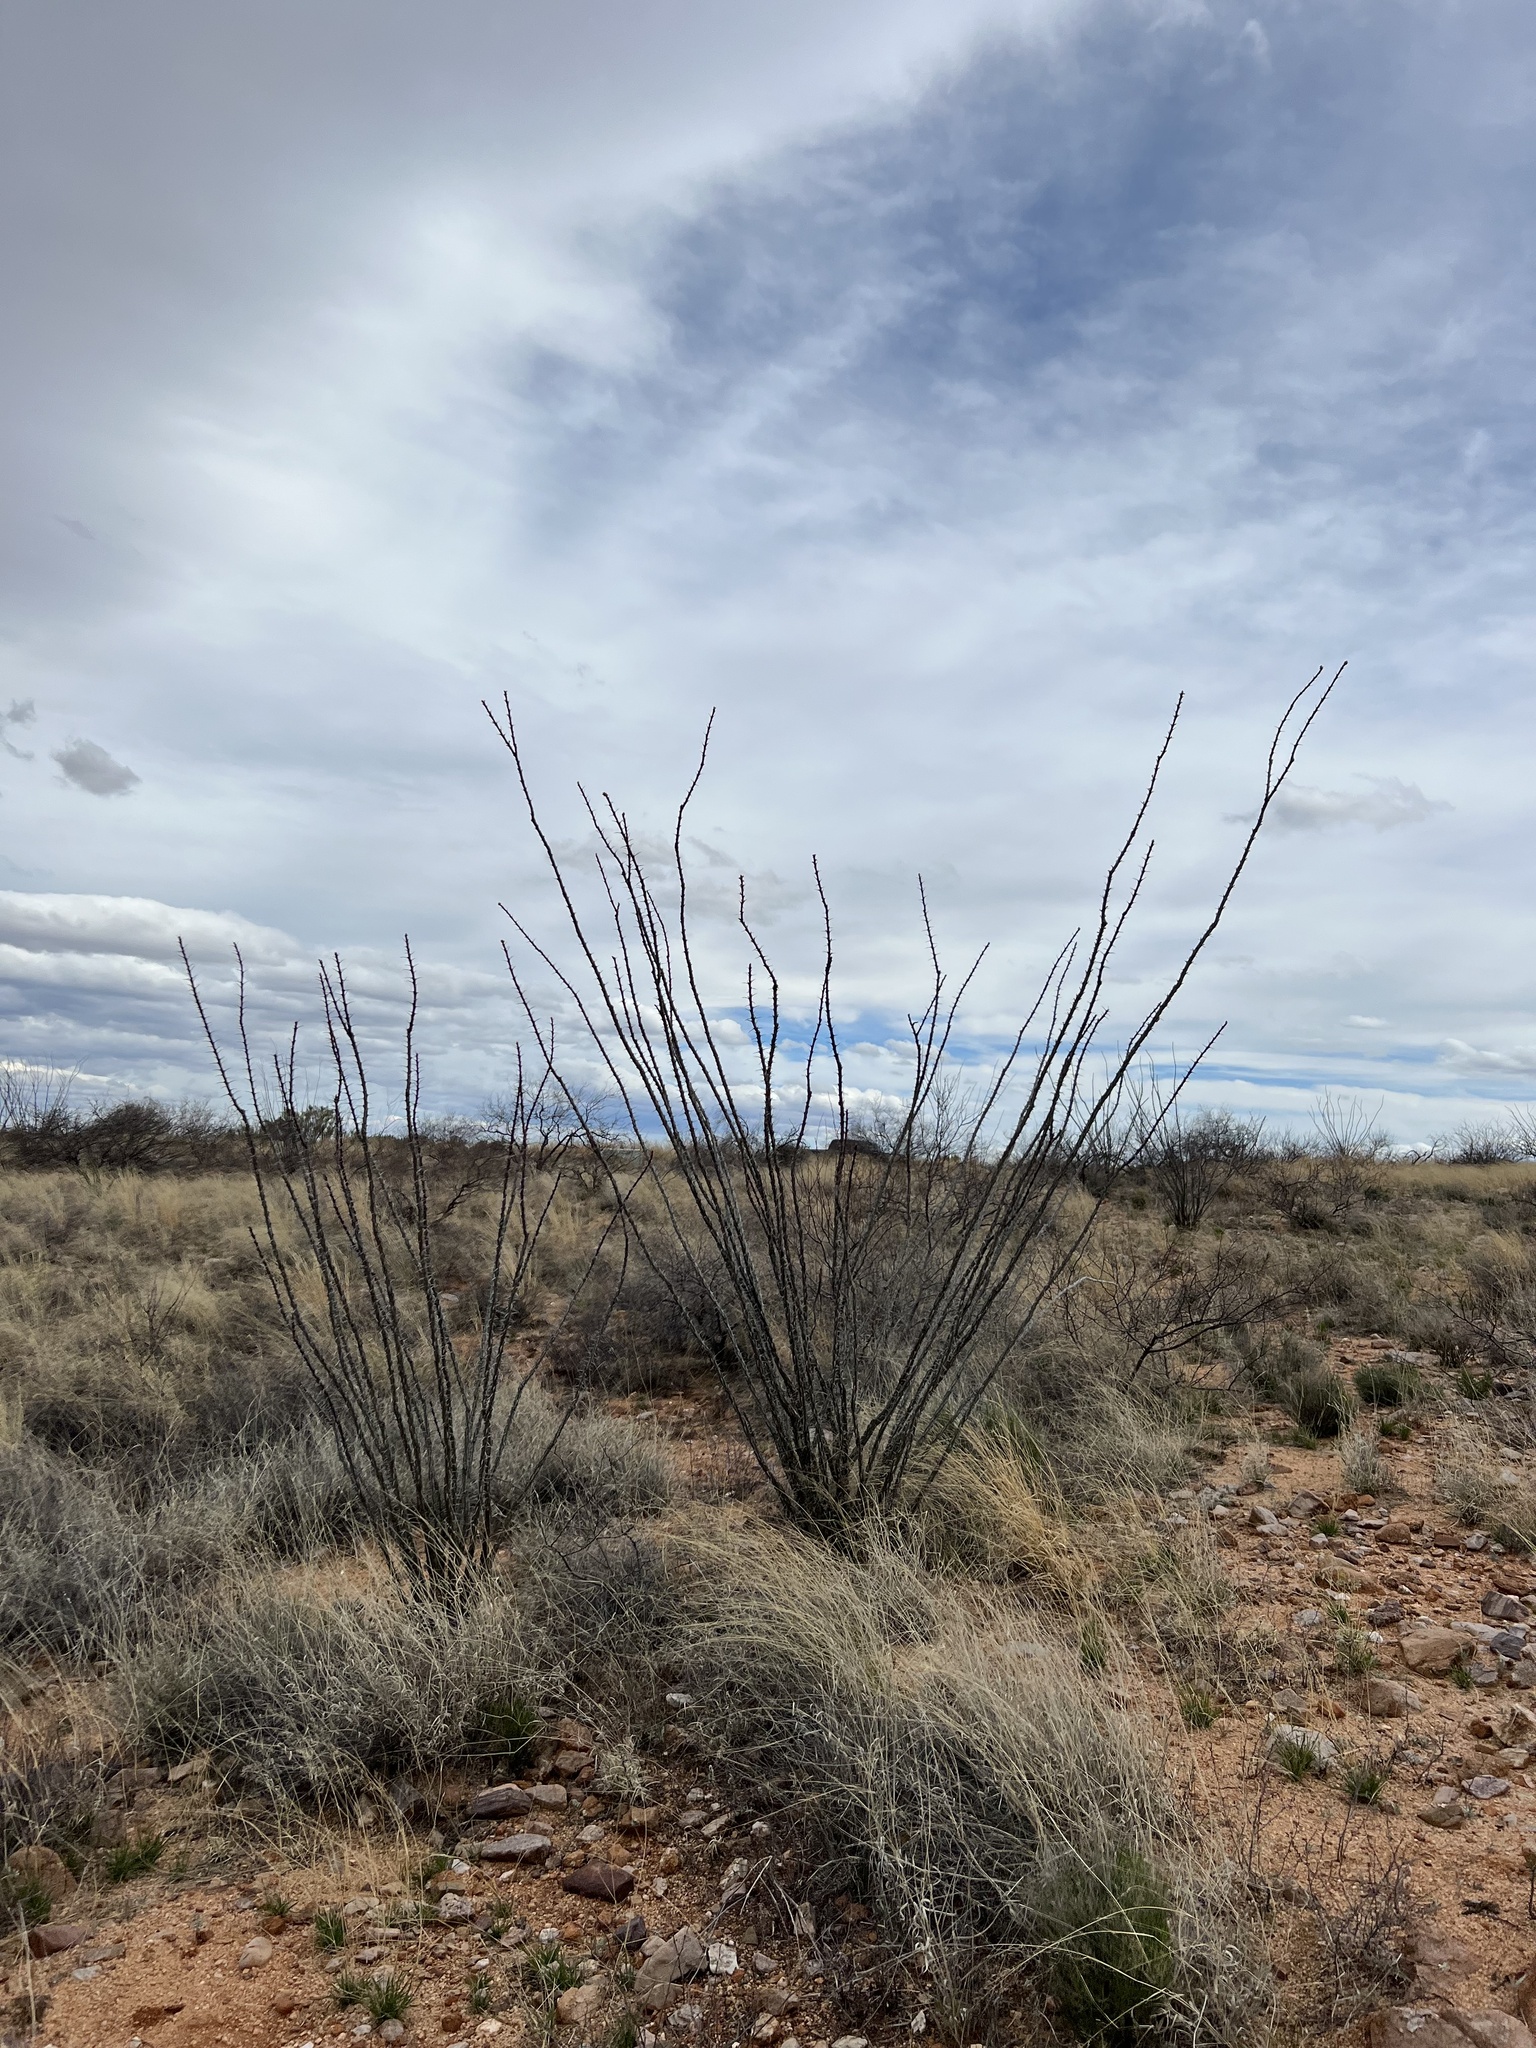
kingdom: Plantae
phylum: Tracheophyta
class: Magnoliopsida
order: Ericales
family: Fouquieriaceae
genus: Fouquieria
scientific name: Fouquieria splendens
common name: Vine-cactus
